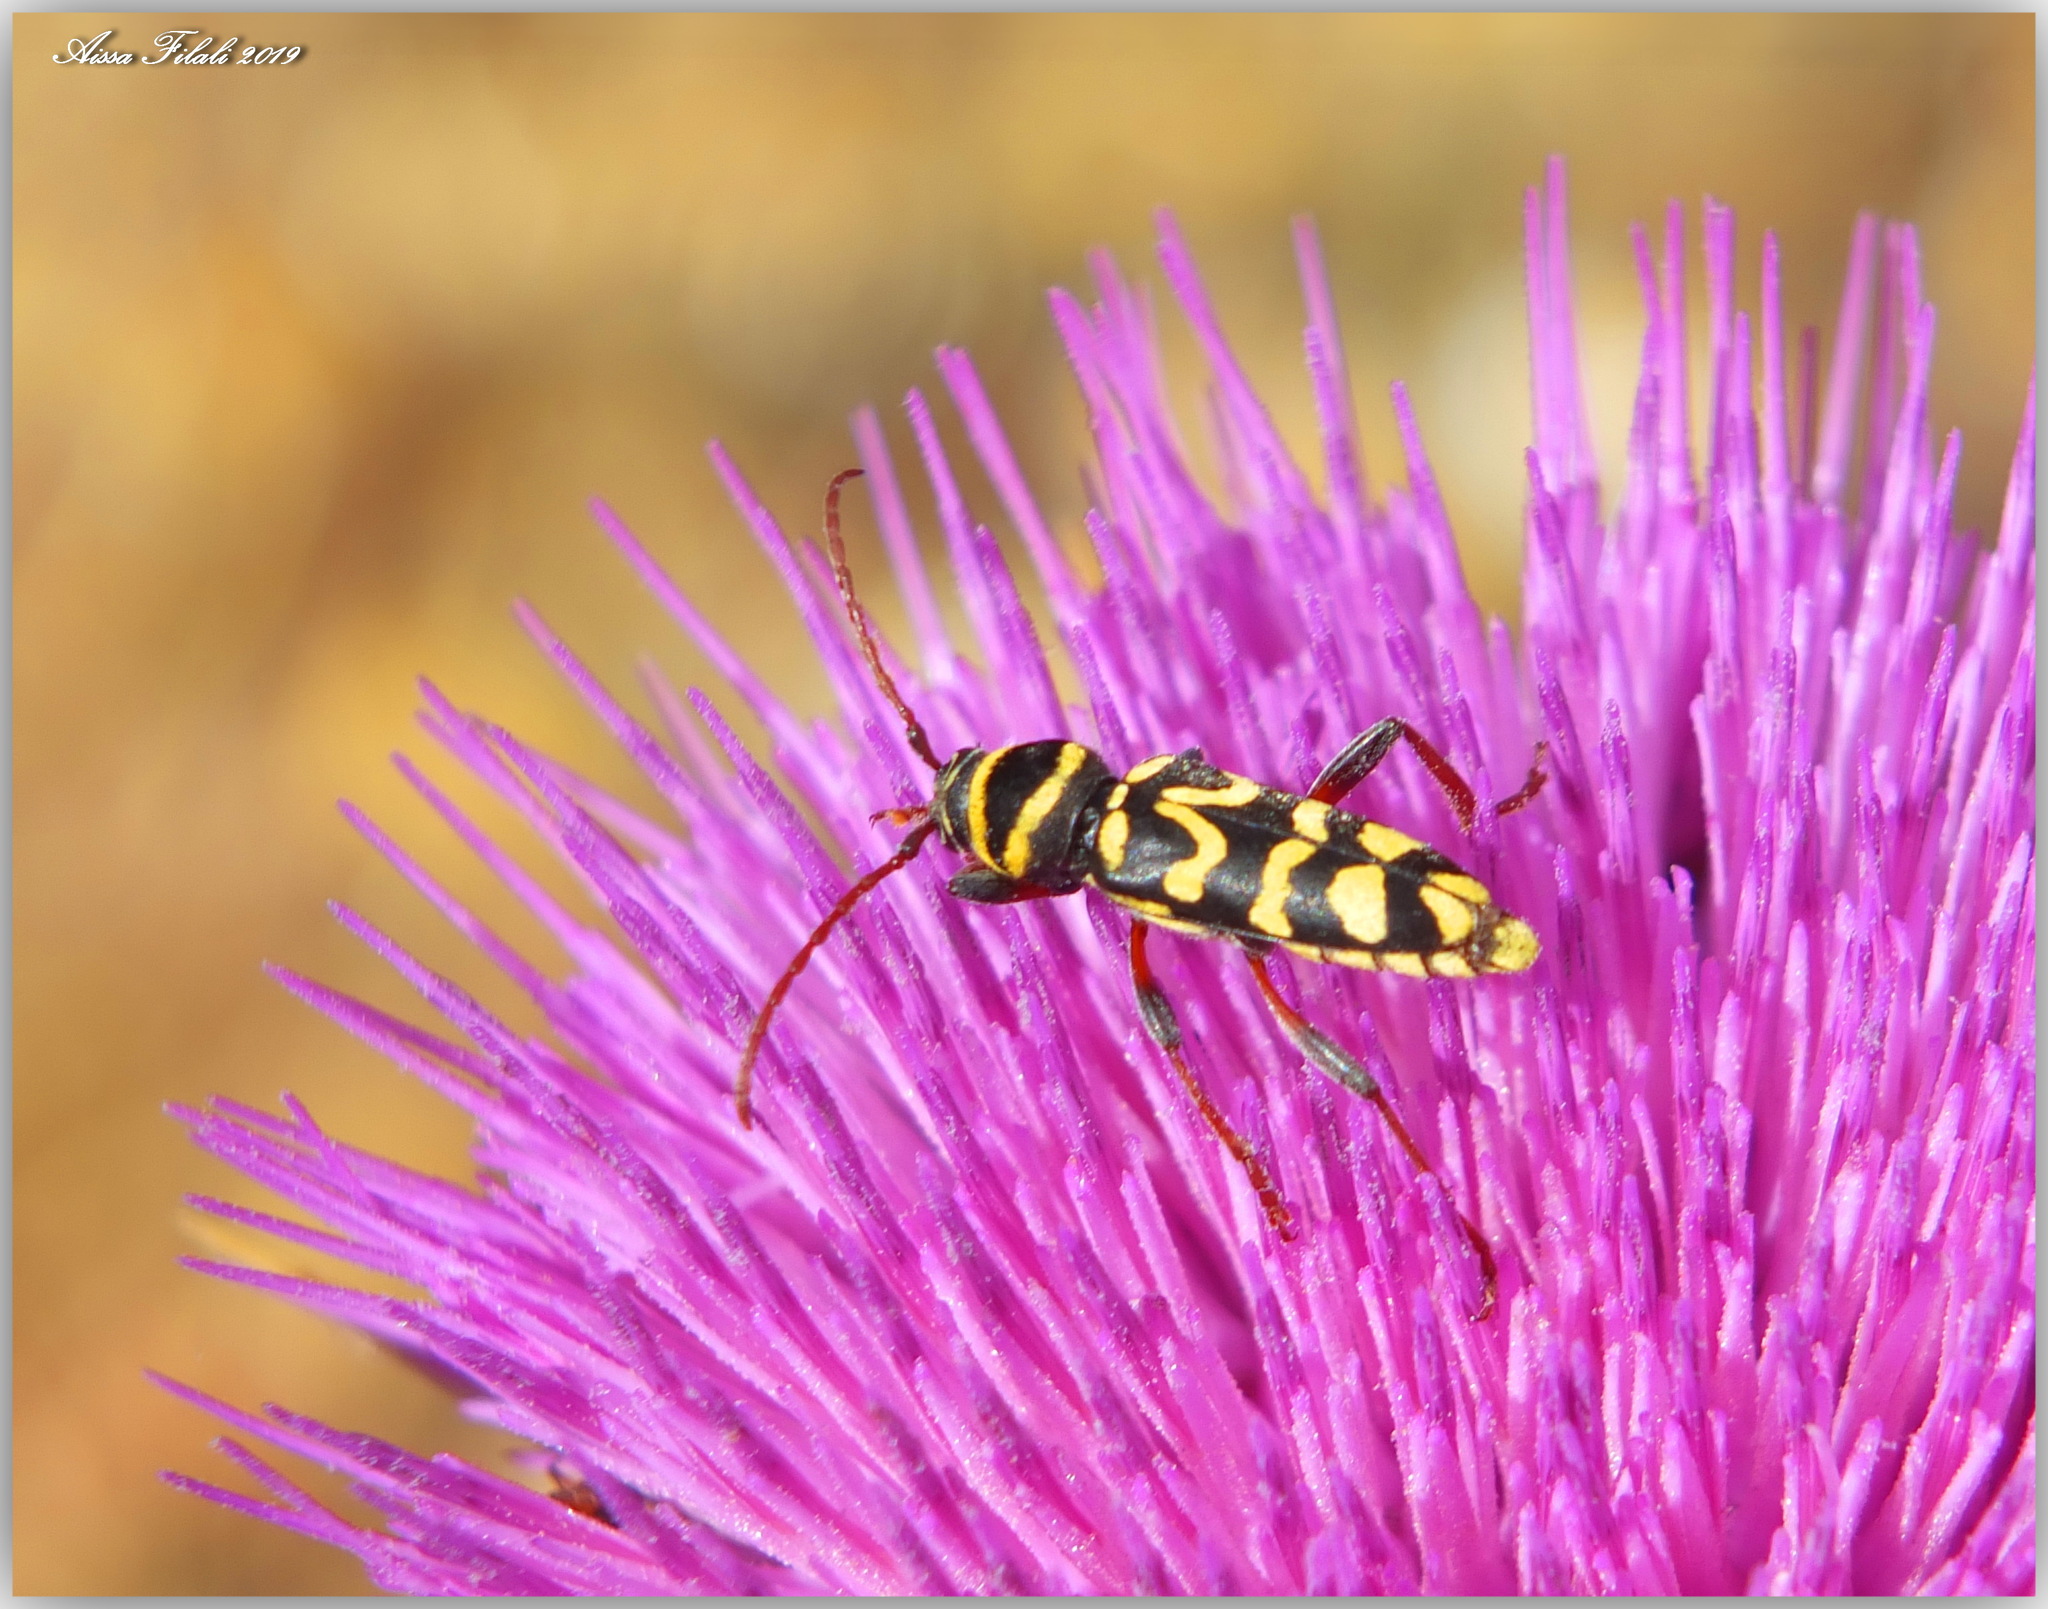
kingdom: Animalia
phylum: Arthropoda
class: Insecta
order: Coleoptera
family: Cerambycidae
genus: Neoplagionotus
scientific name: Neoplagionotus scalaris
